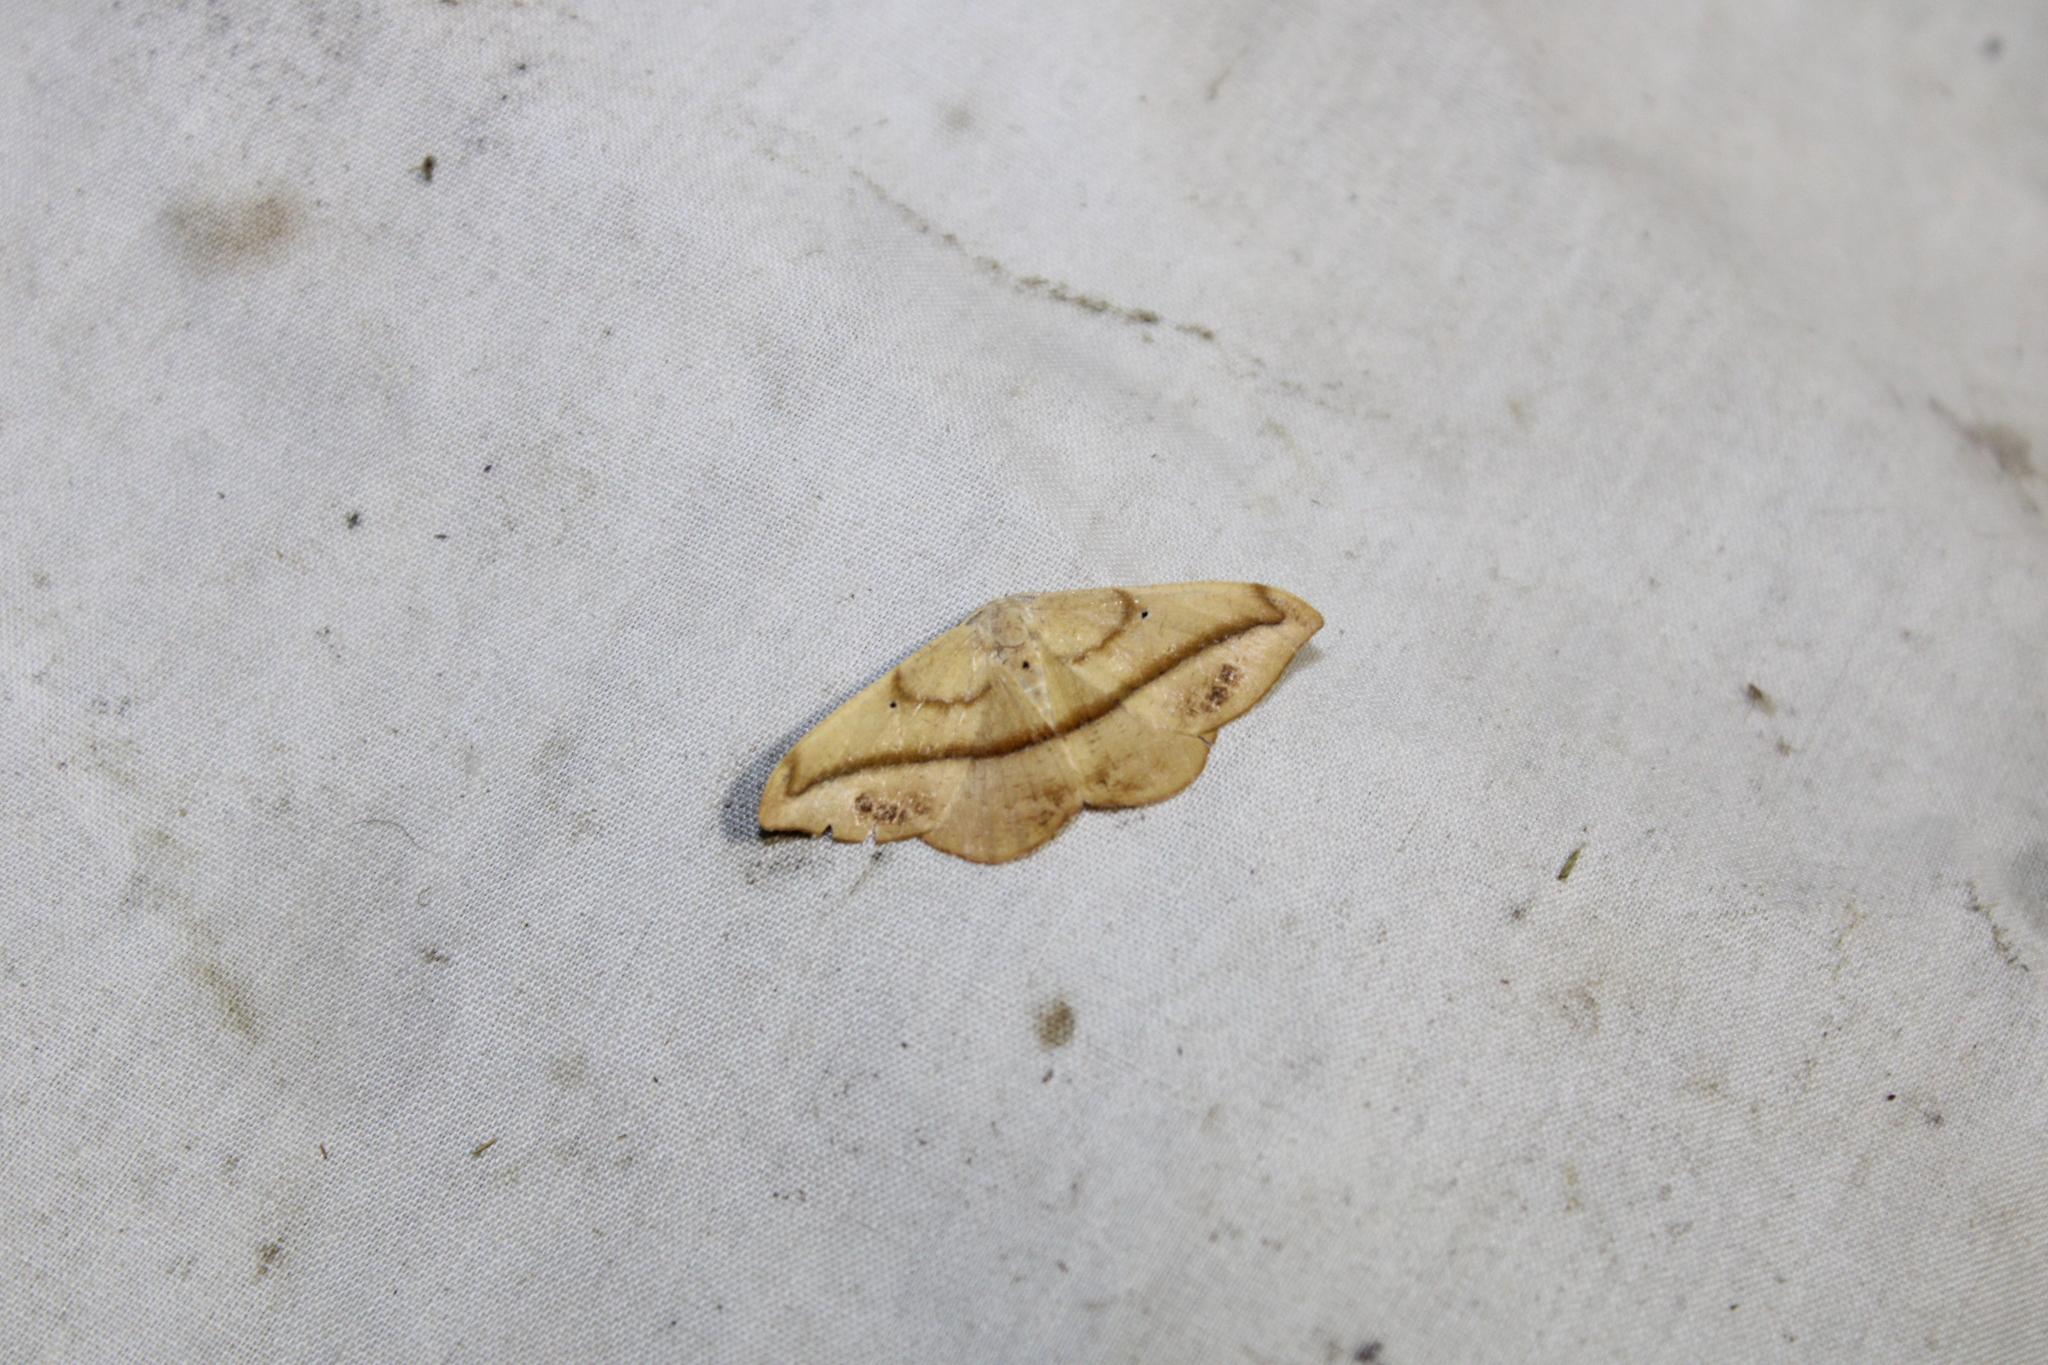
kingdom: Animalia
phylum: Arthropoda
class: Insecta
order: Lepidoptera
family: Geometridae
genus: Patalene
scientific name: Patalene olyzonaria
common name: Juniper geometer moth
